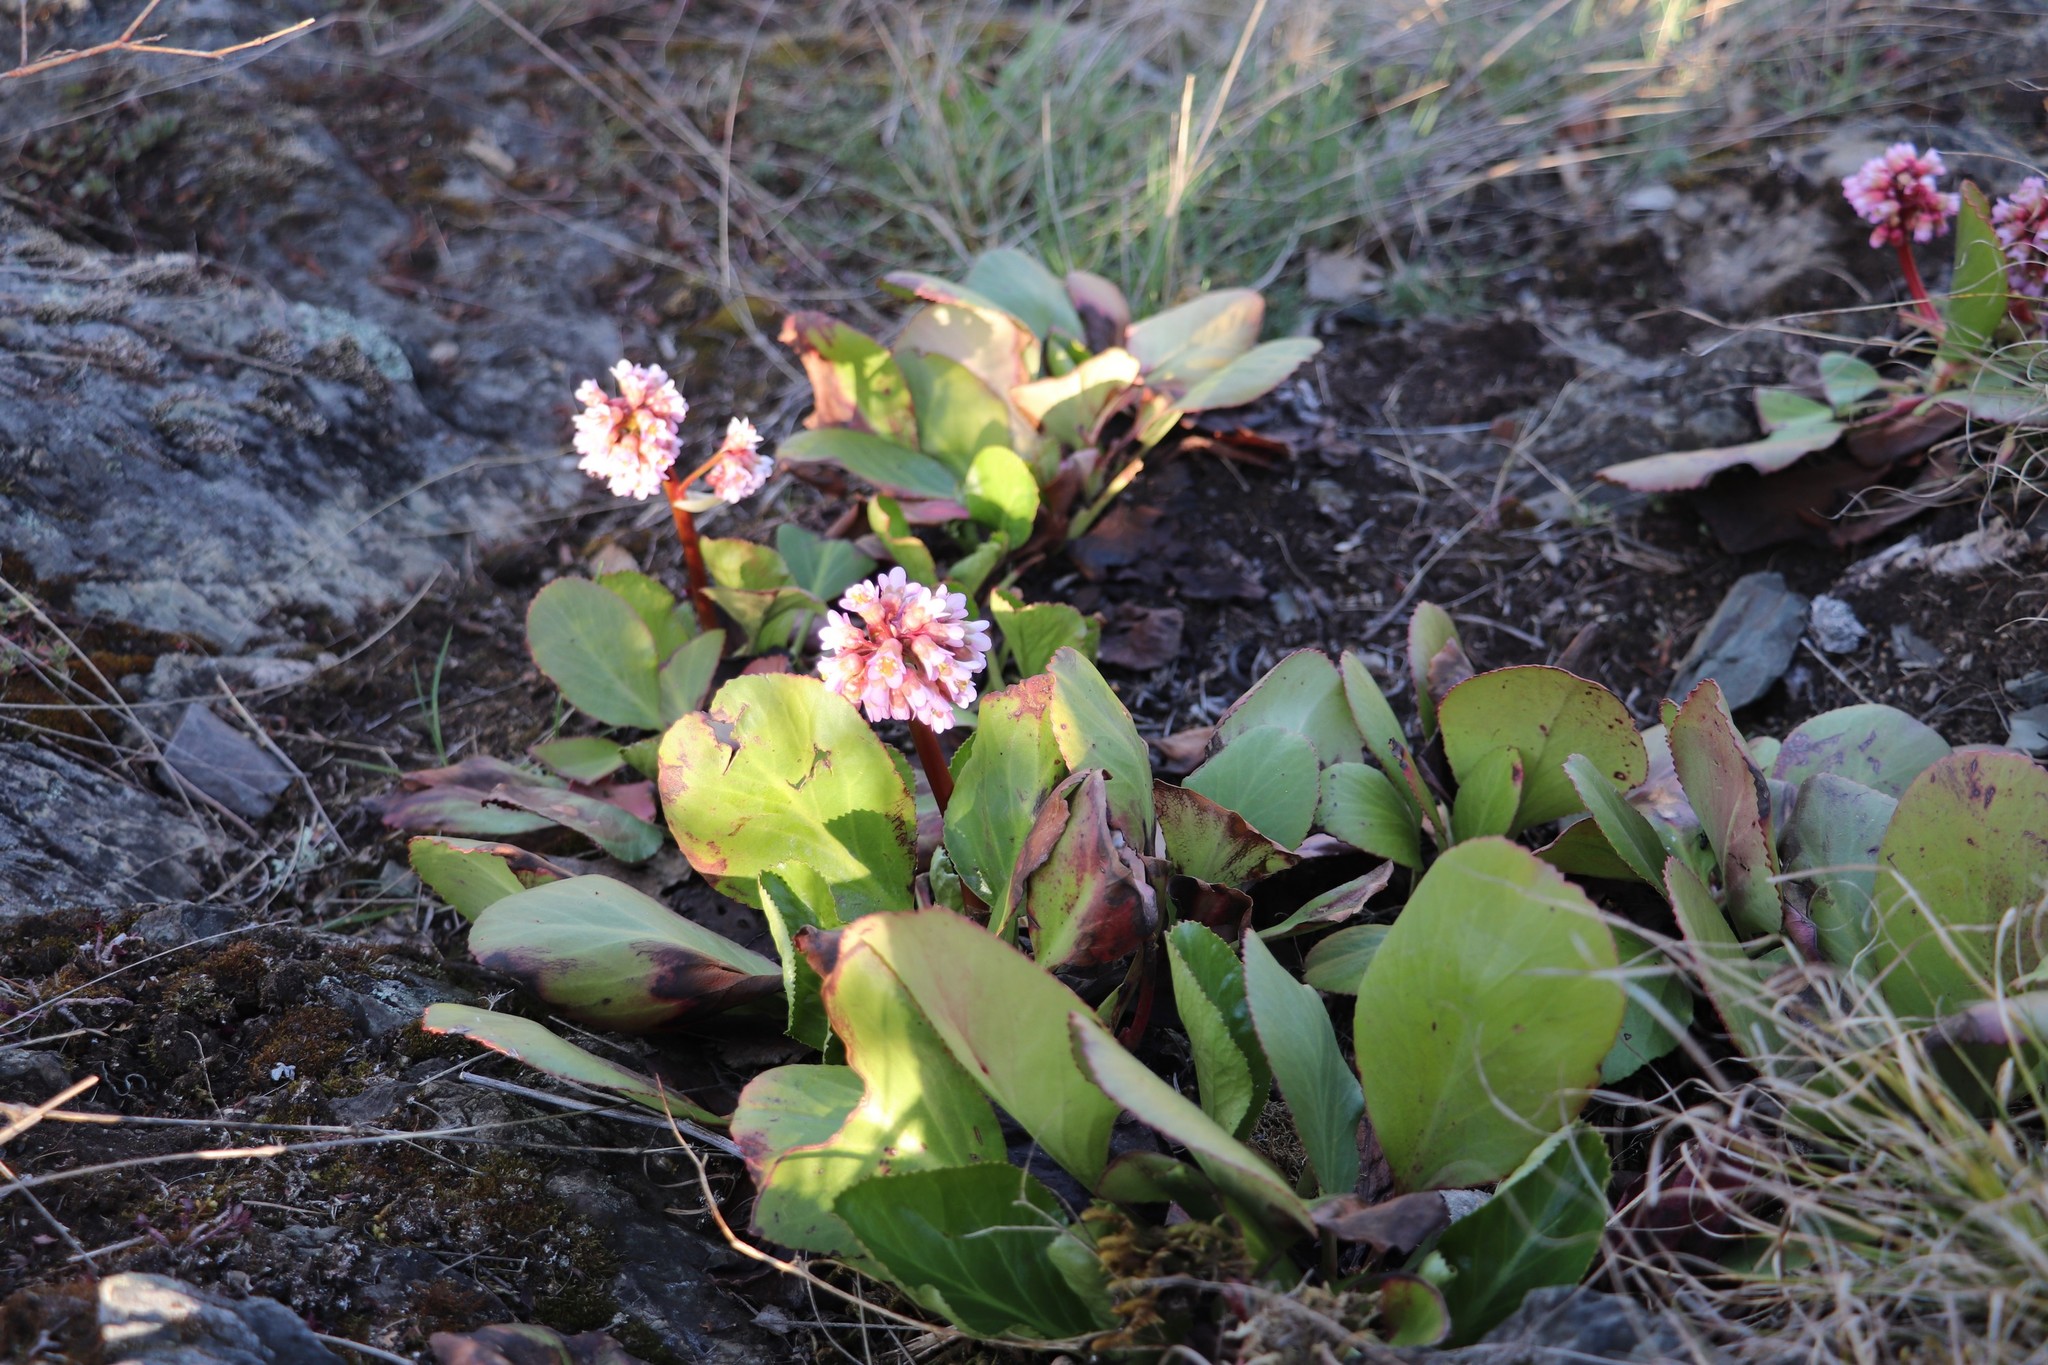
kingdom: Plantae
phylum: Tracheophyta
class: Magnoliopsida
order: Saxifragales
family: Saxifragaceae
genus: Bergenia
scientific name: Bergenia crassifolia
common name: Elephant-ears
